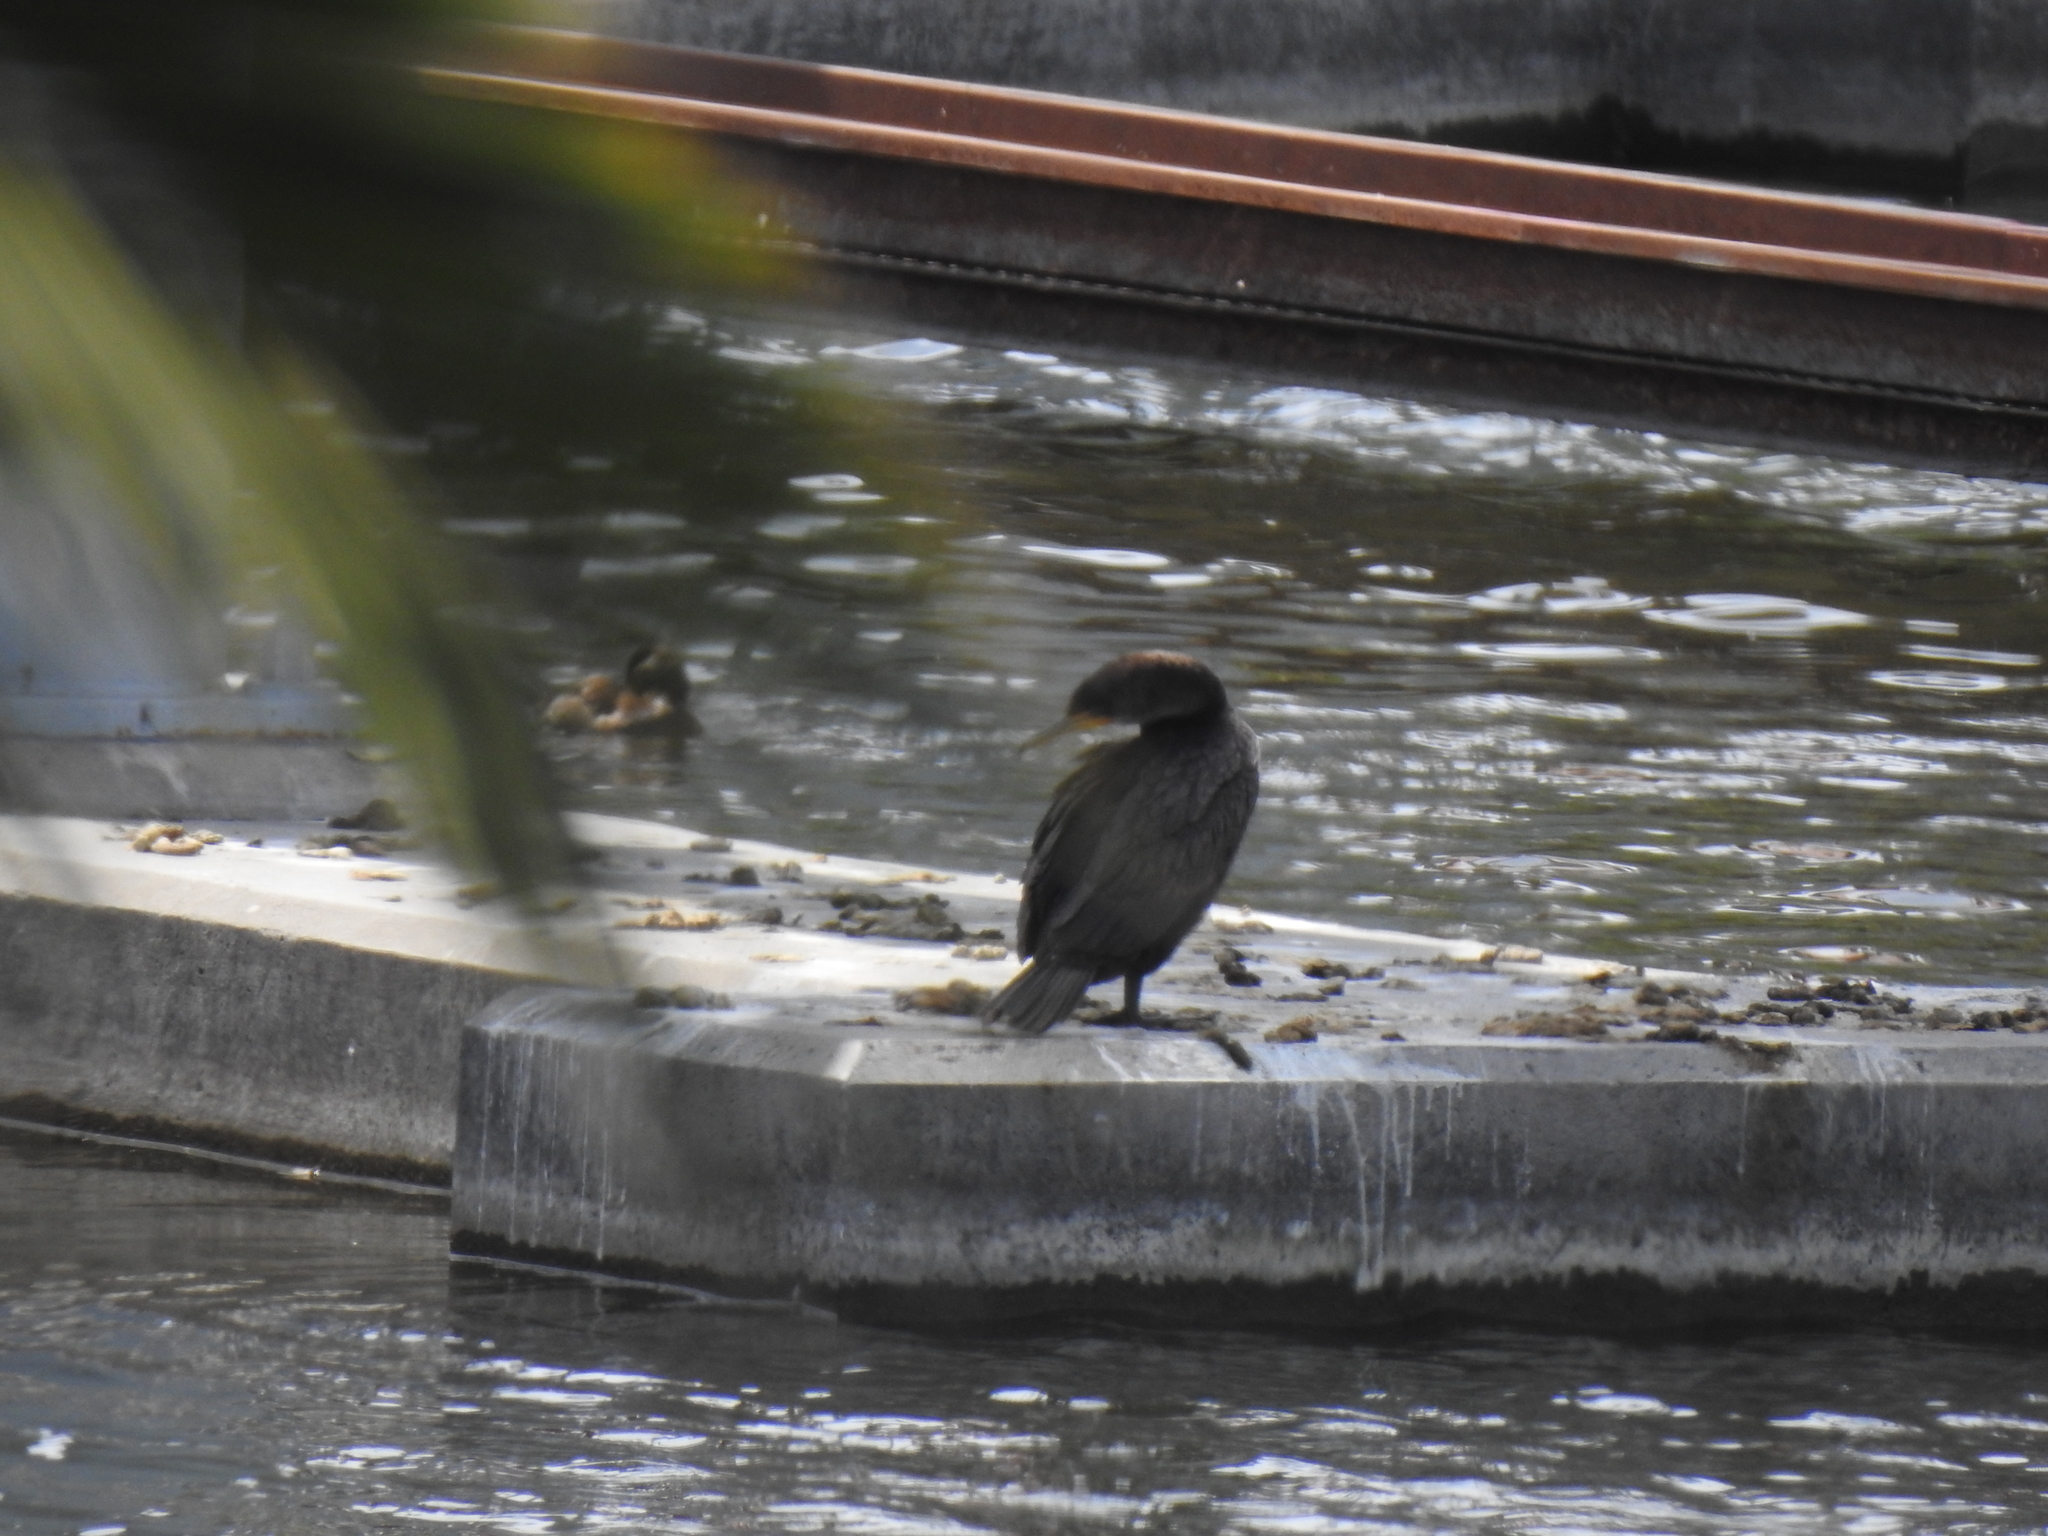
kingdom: Animalia
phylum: Chordata
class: Aves
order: Suliformes
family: Phalacrocoracidae
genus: Phalacrocorax
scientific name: Phalacrocorax auritus
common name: Double-crested cormorant
